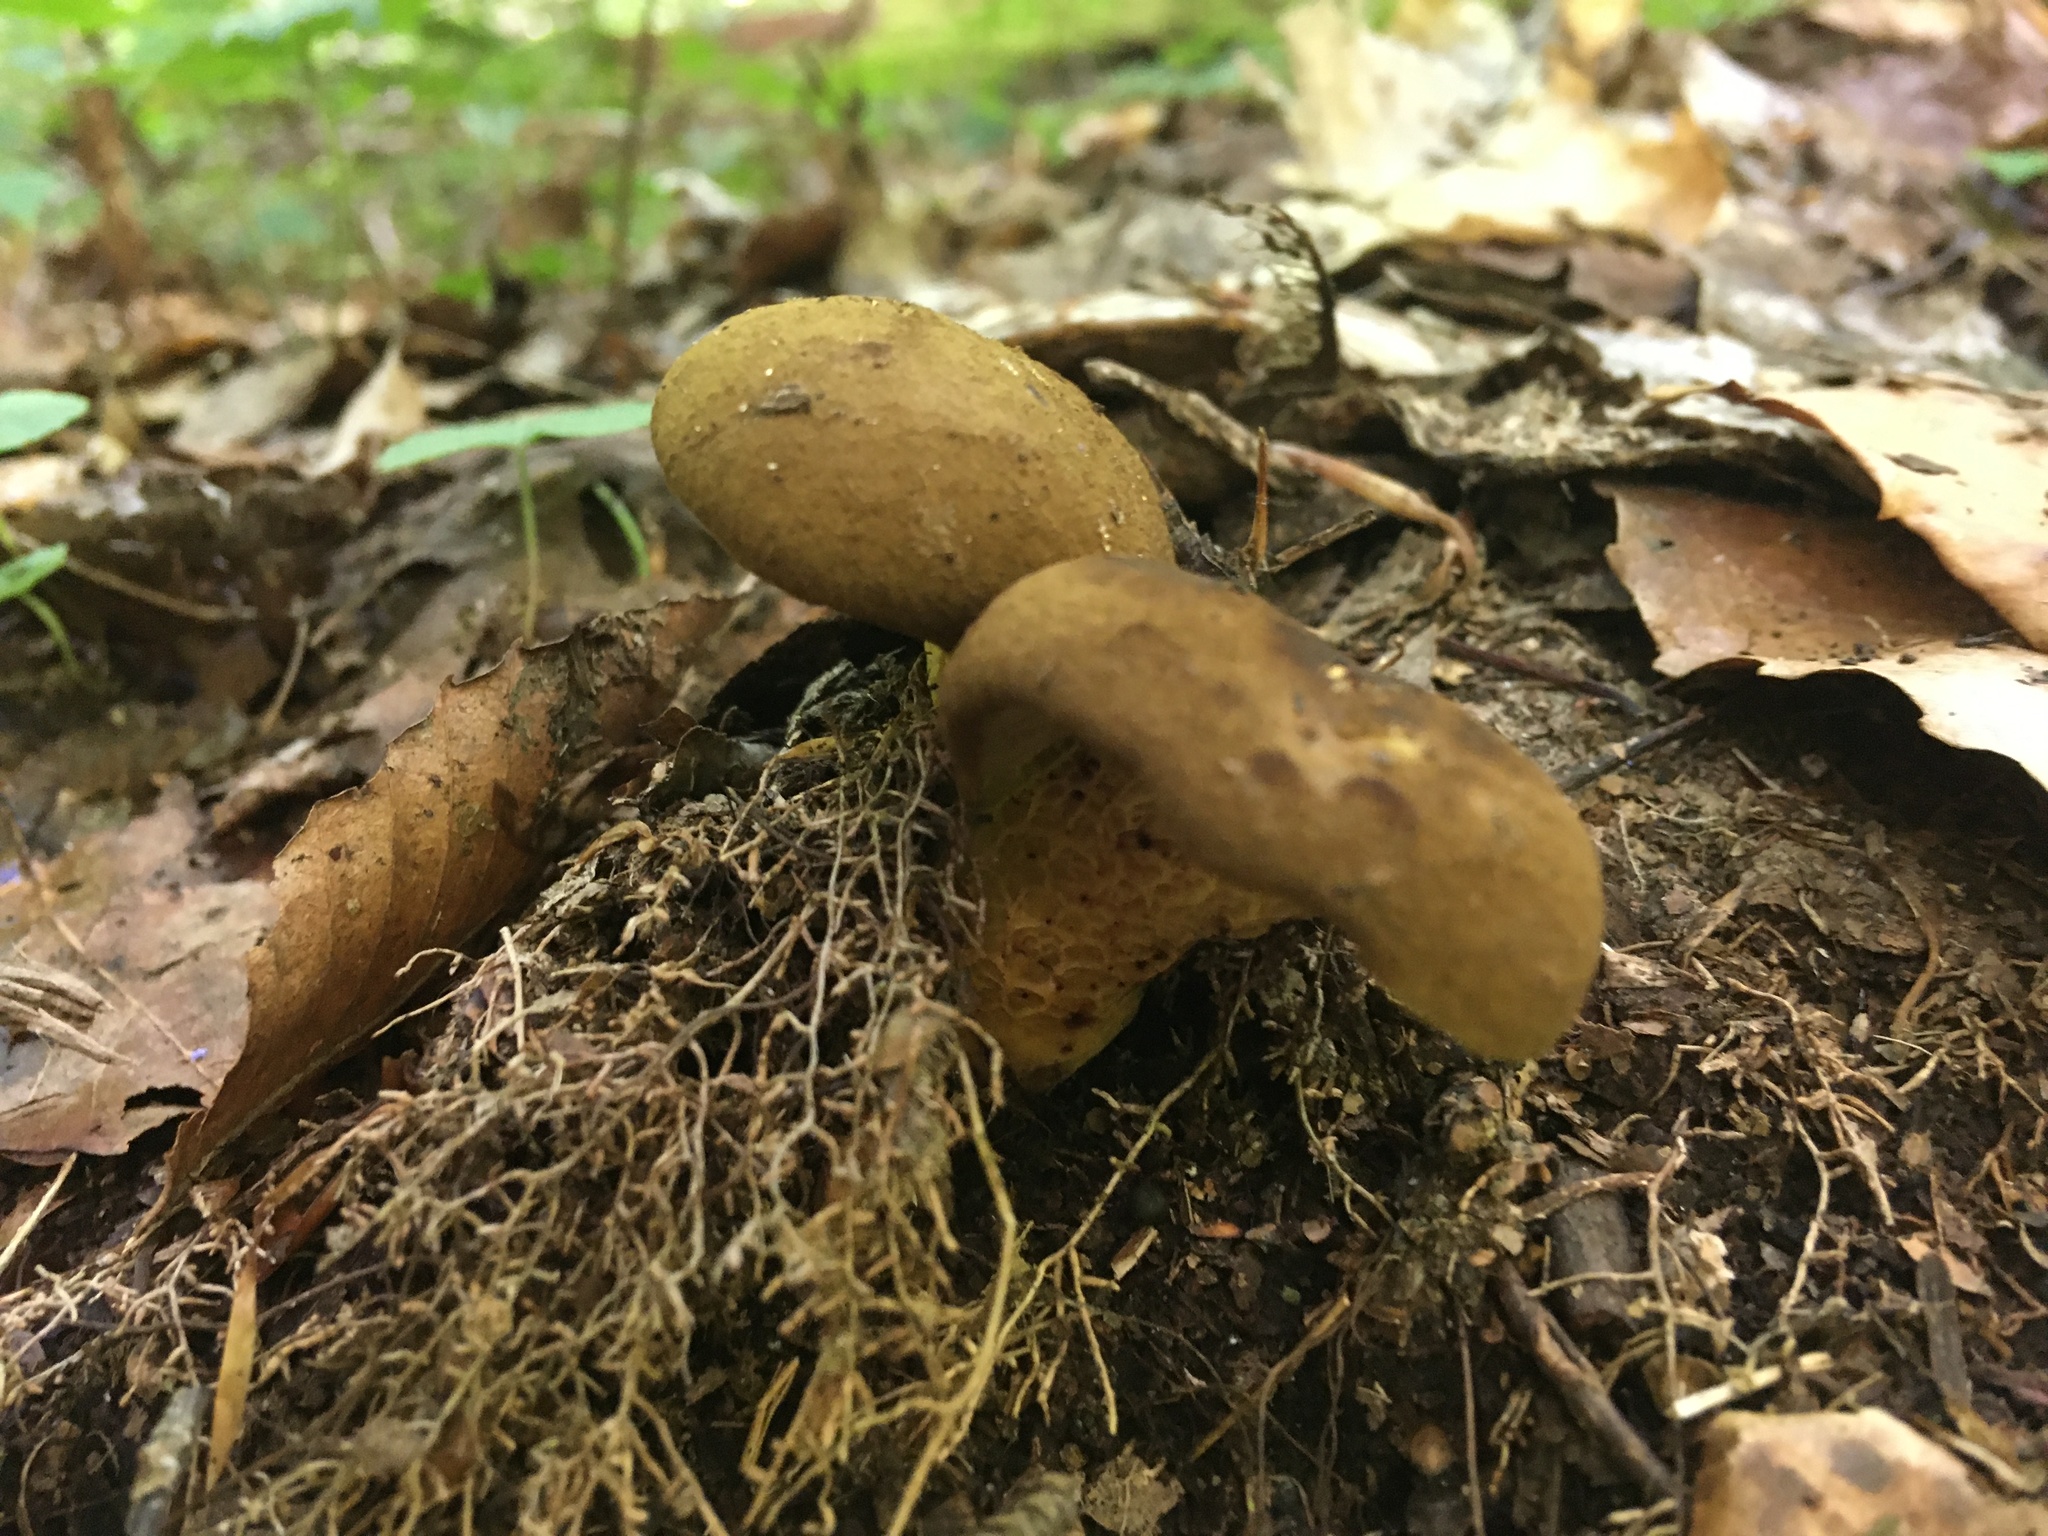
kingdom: Fungi
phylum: Basidiomycota
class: Agaricomycetes
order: Boletales
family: Boletinellaceae
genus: Boletinellus
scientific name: Boletinellus merulioides
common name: Ash tree bolete
